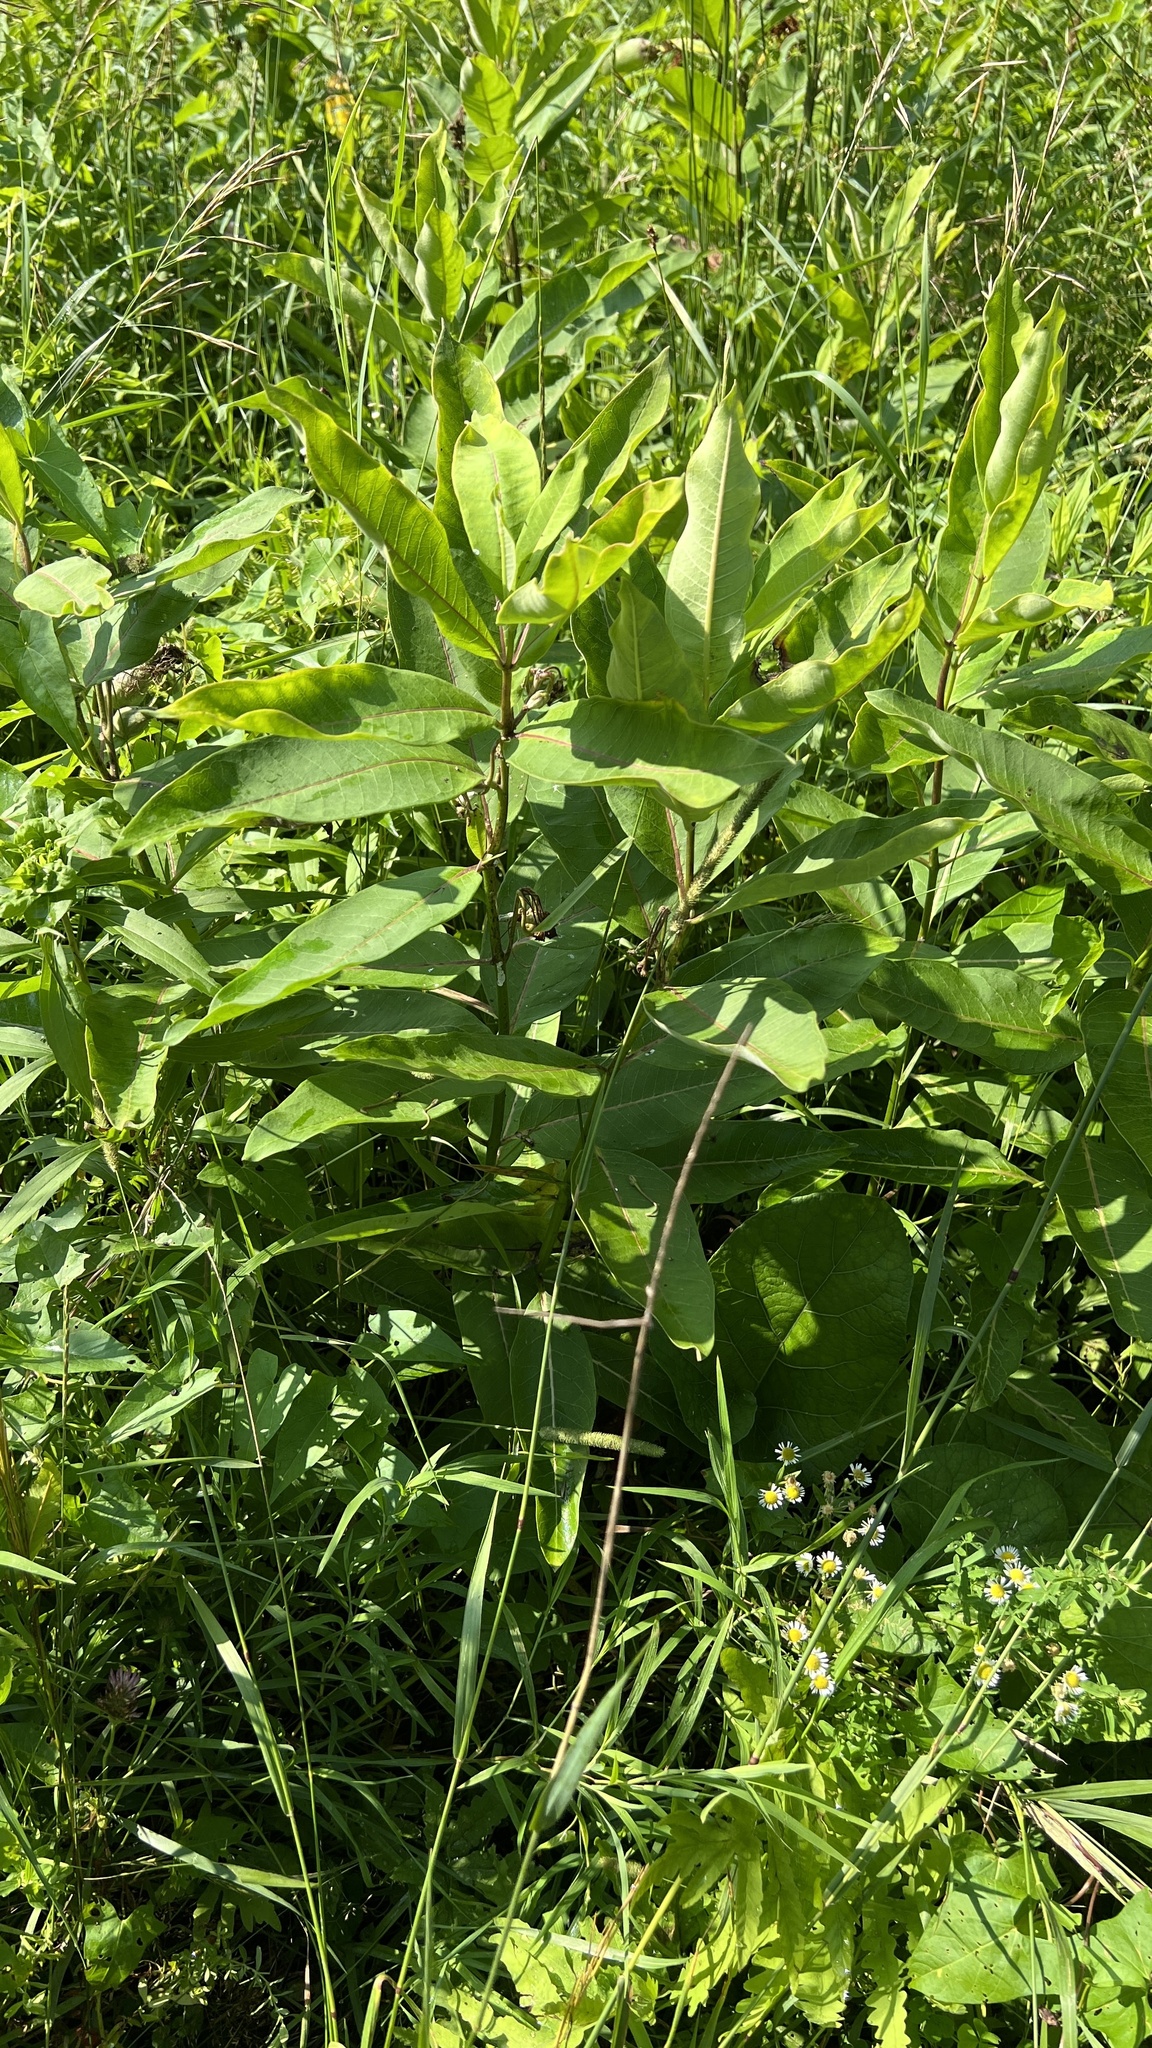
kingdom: Plantae
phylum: Tracheophyta
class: Magnoliopsida
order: Gentianales
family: Apocynaceae
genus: Asclepias
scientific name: Asclepias syriaca
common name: Common milkweed
